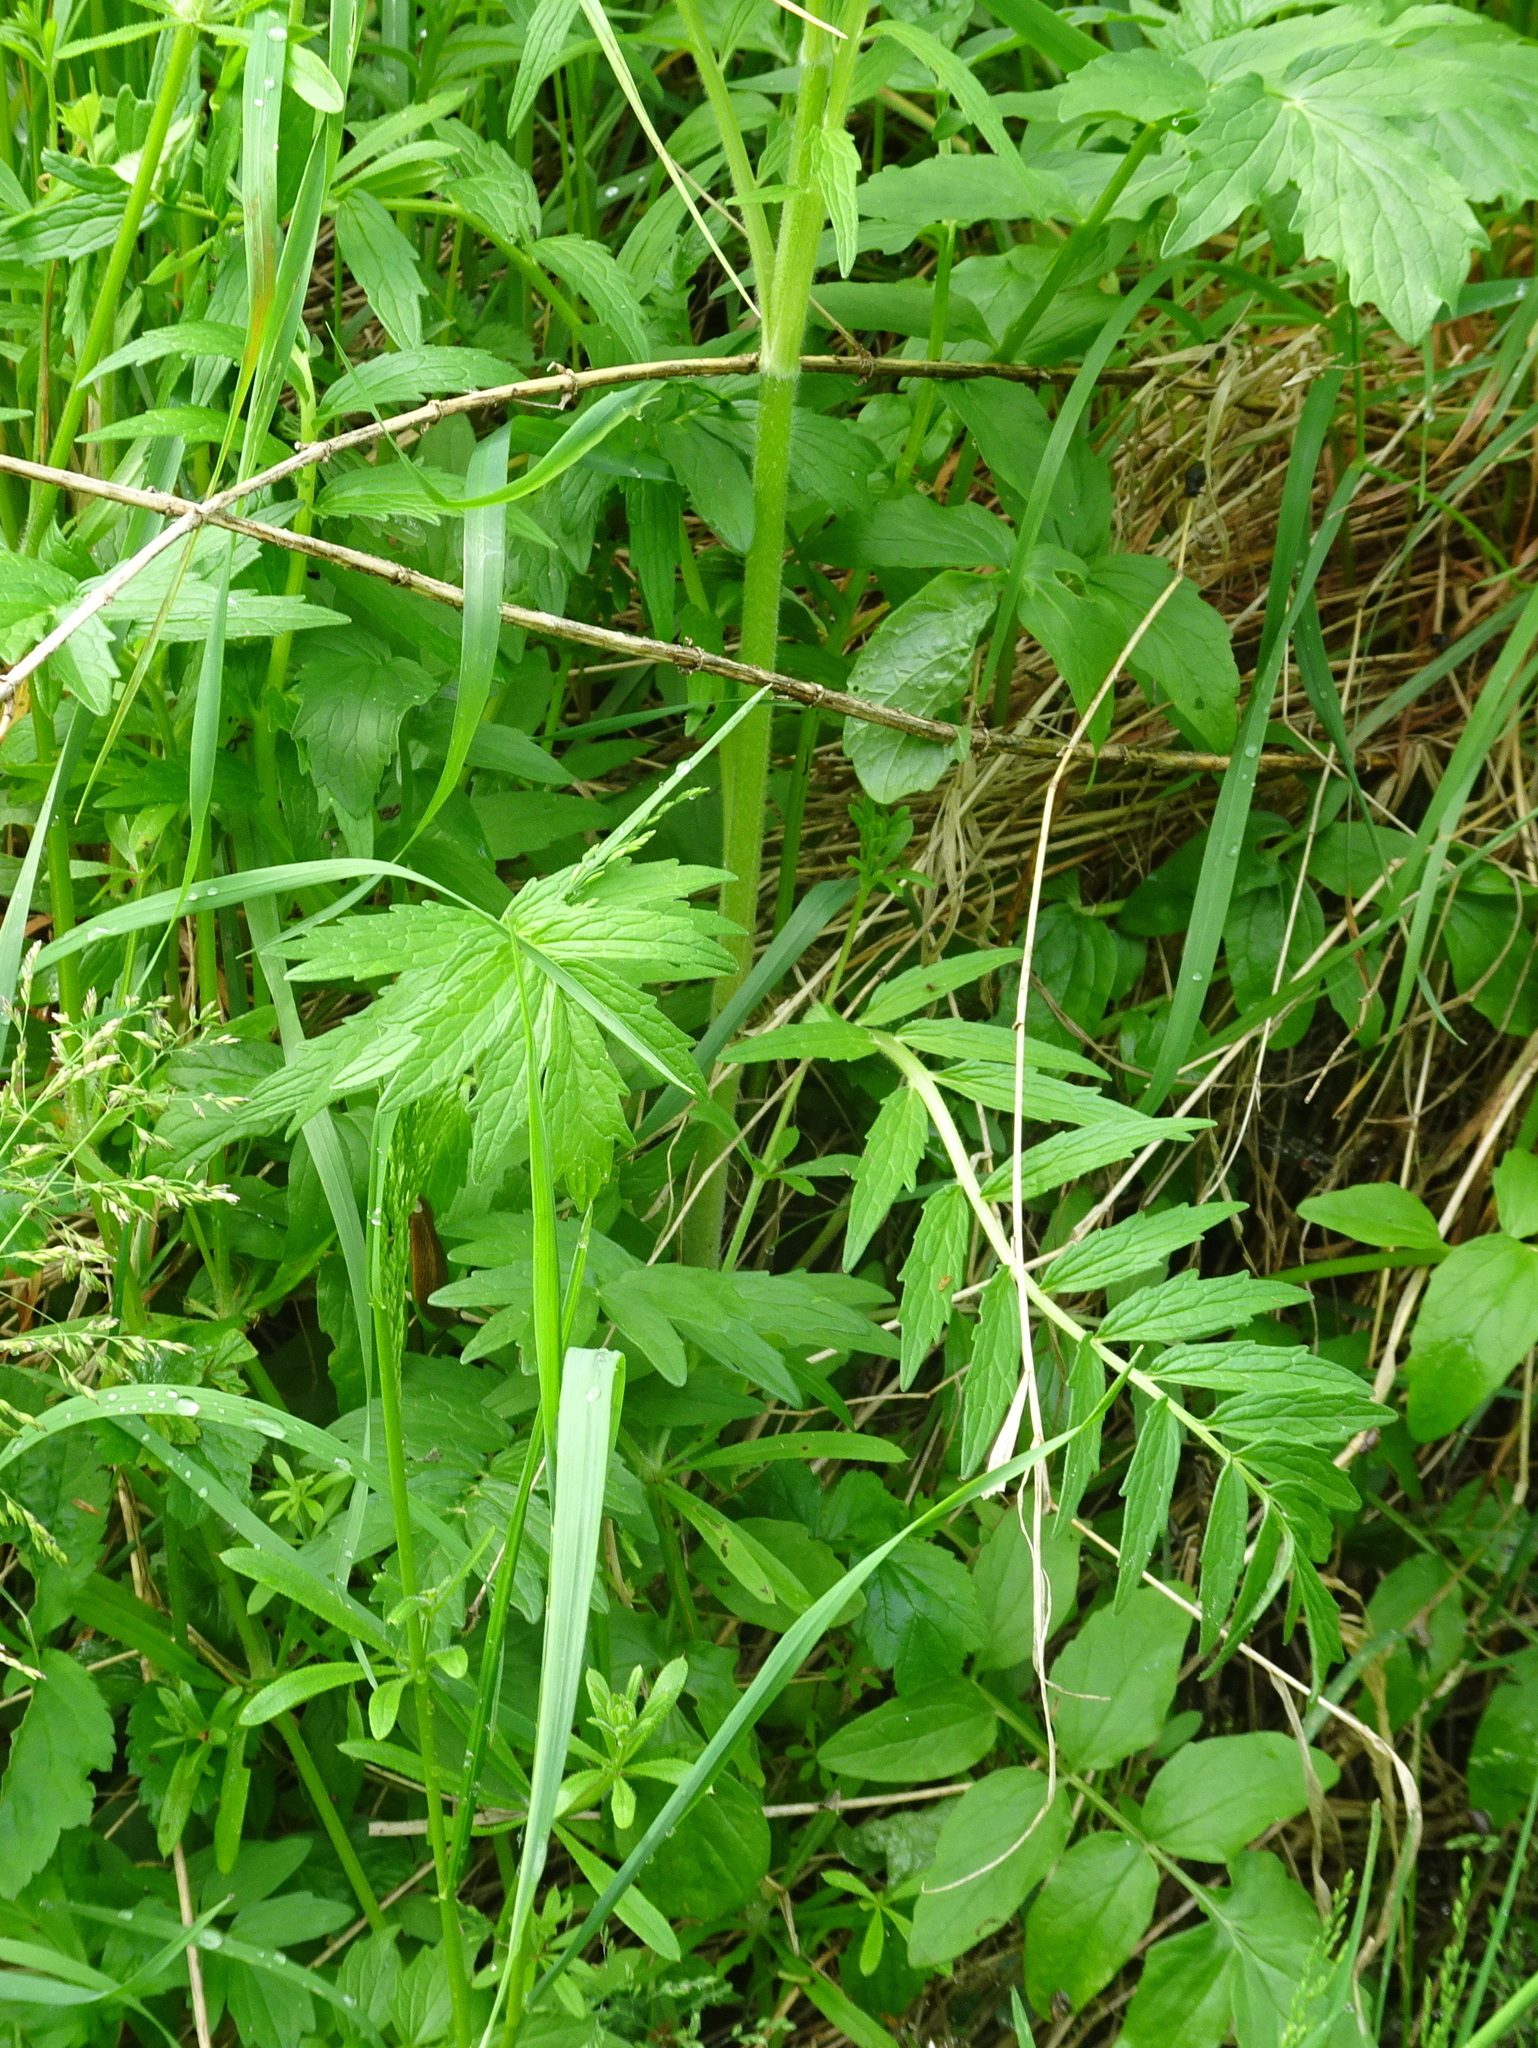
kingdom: Plantae
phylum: Tracheophyta
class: Magnoliopsida
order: Dipsacales
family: Caprifoliaceae
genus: Valeriana
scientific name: Valeriana officinalis
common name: Common valerian
